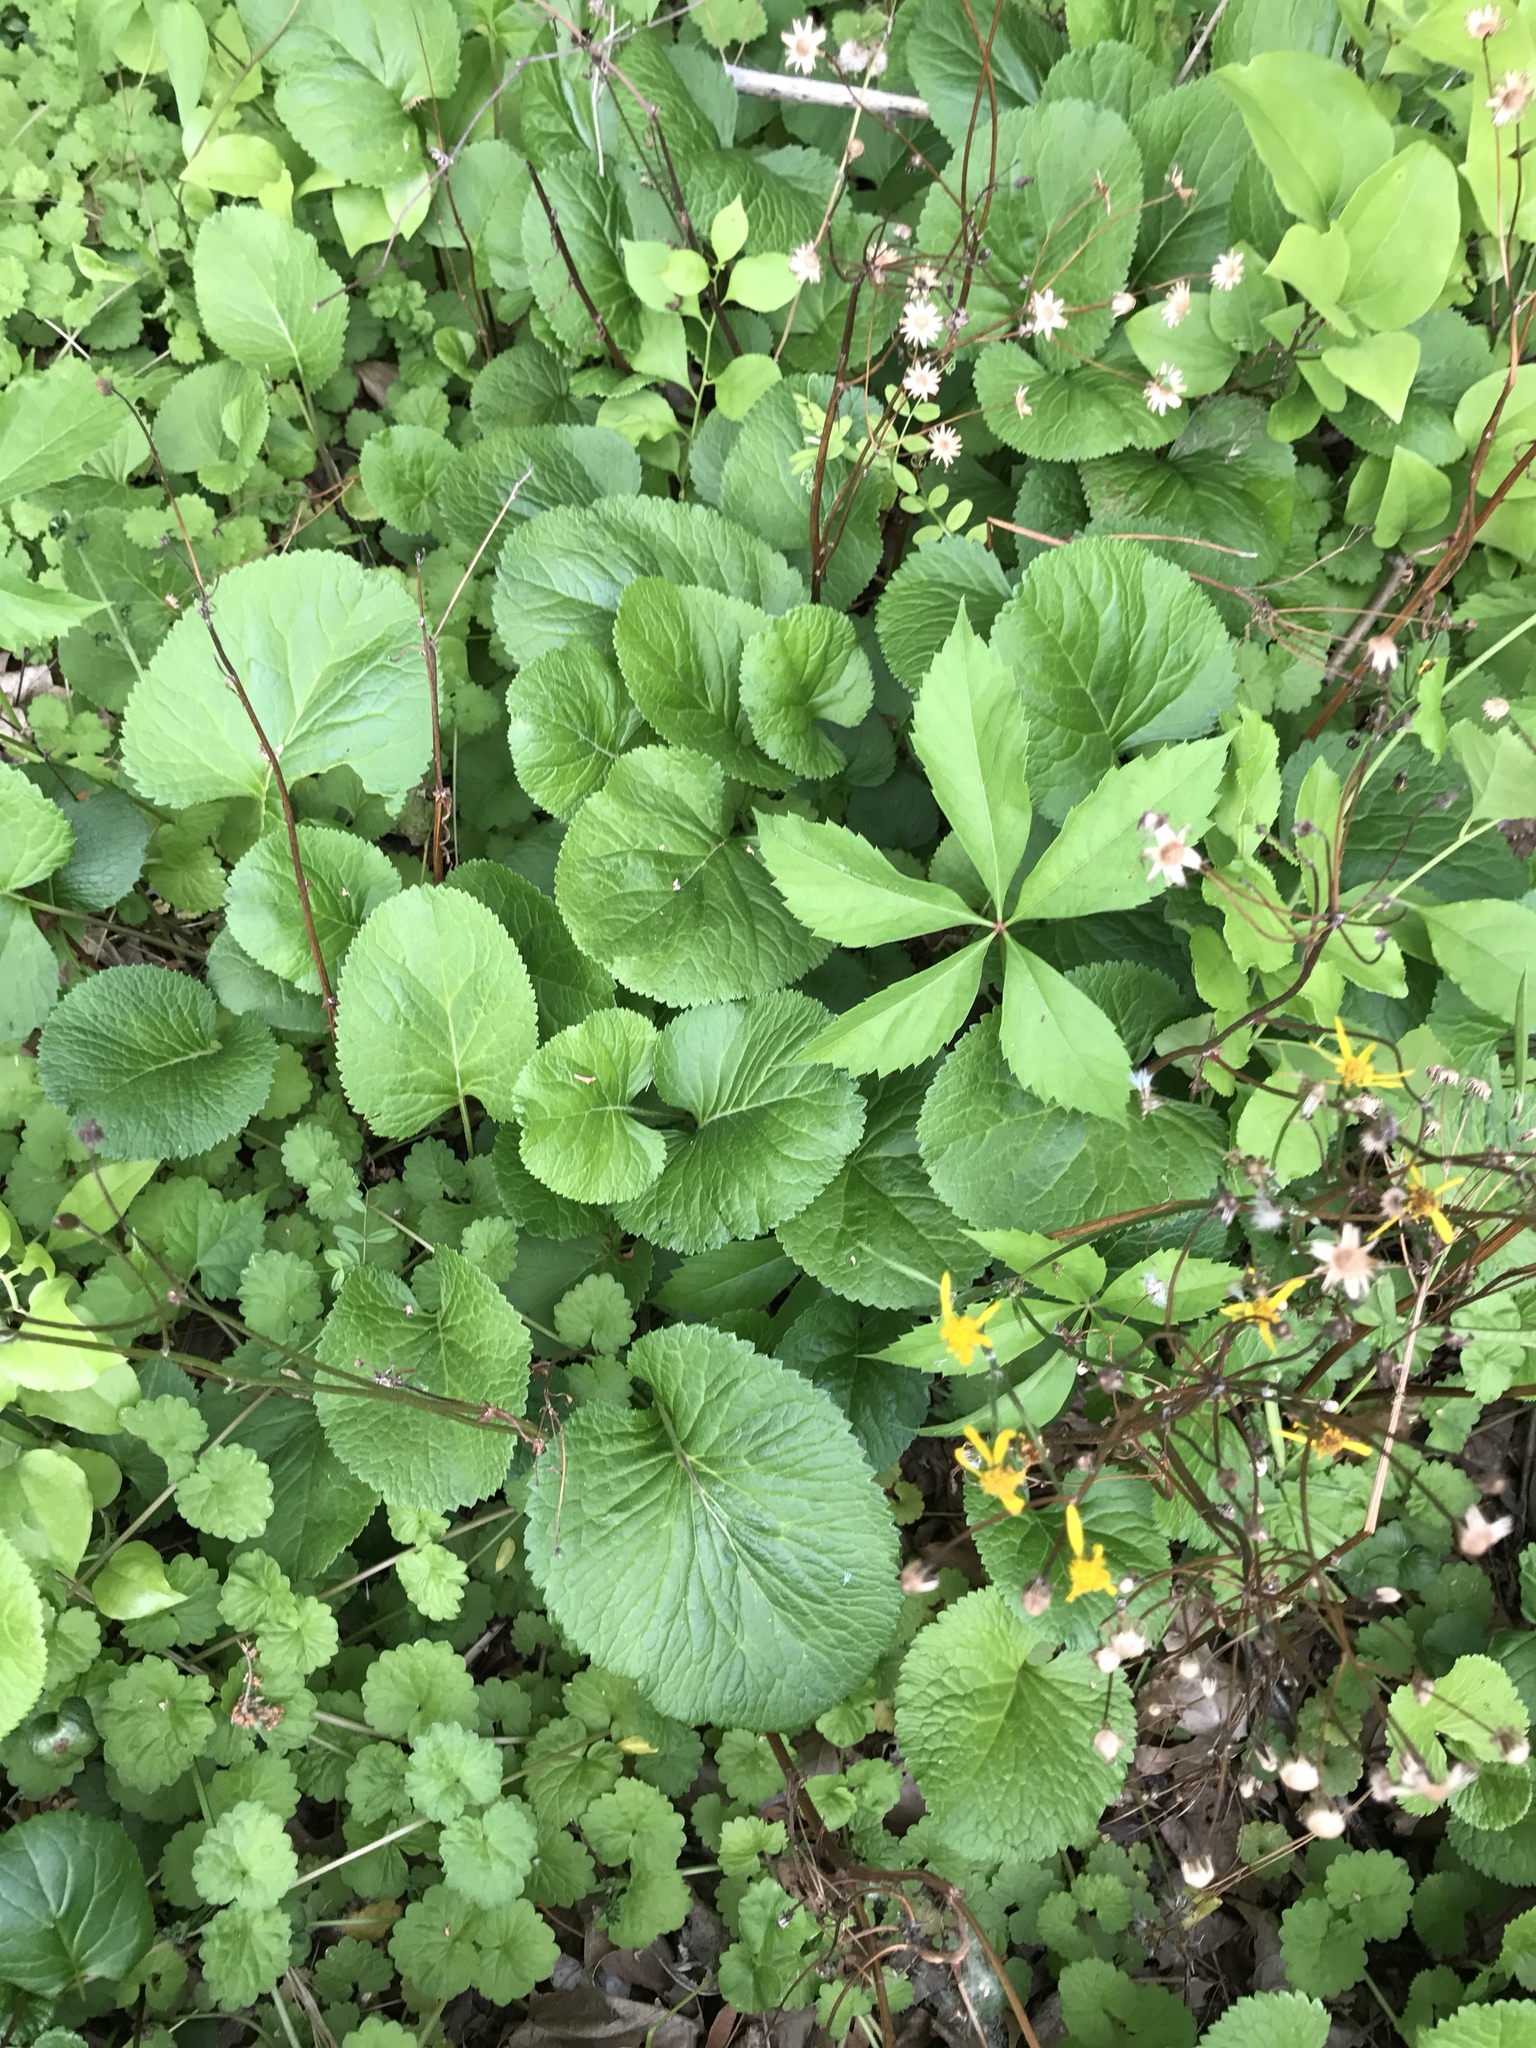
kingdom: Plantae
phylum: Tracheophyta
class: Magnoliopsida
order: Asterales
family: Asteraceae
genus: Packera
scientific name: Packera aurea
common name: Golden groundsel
